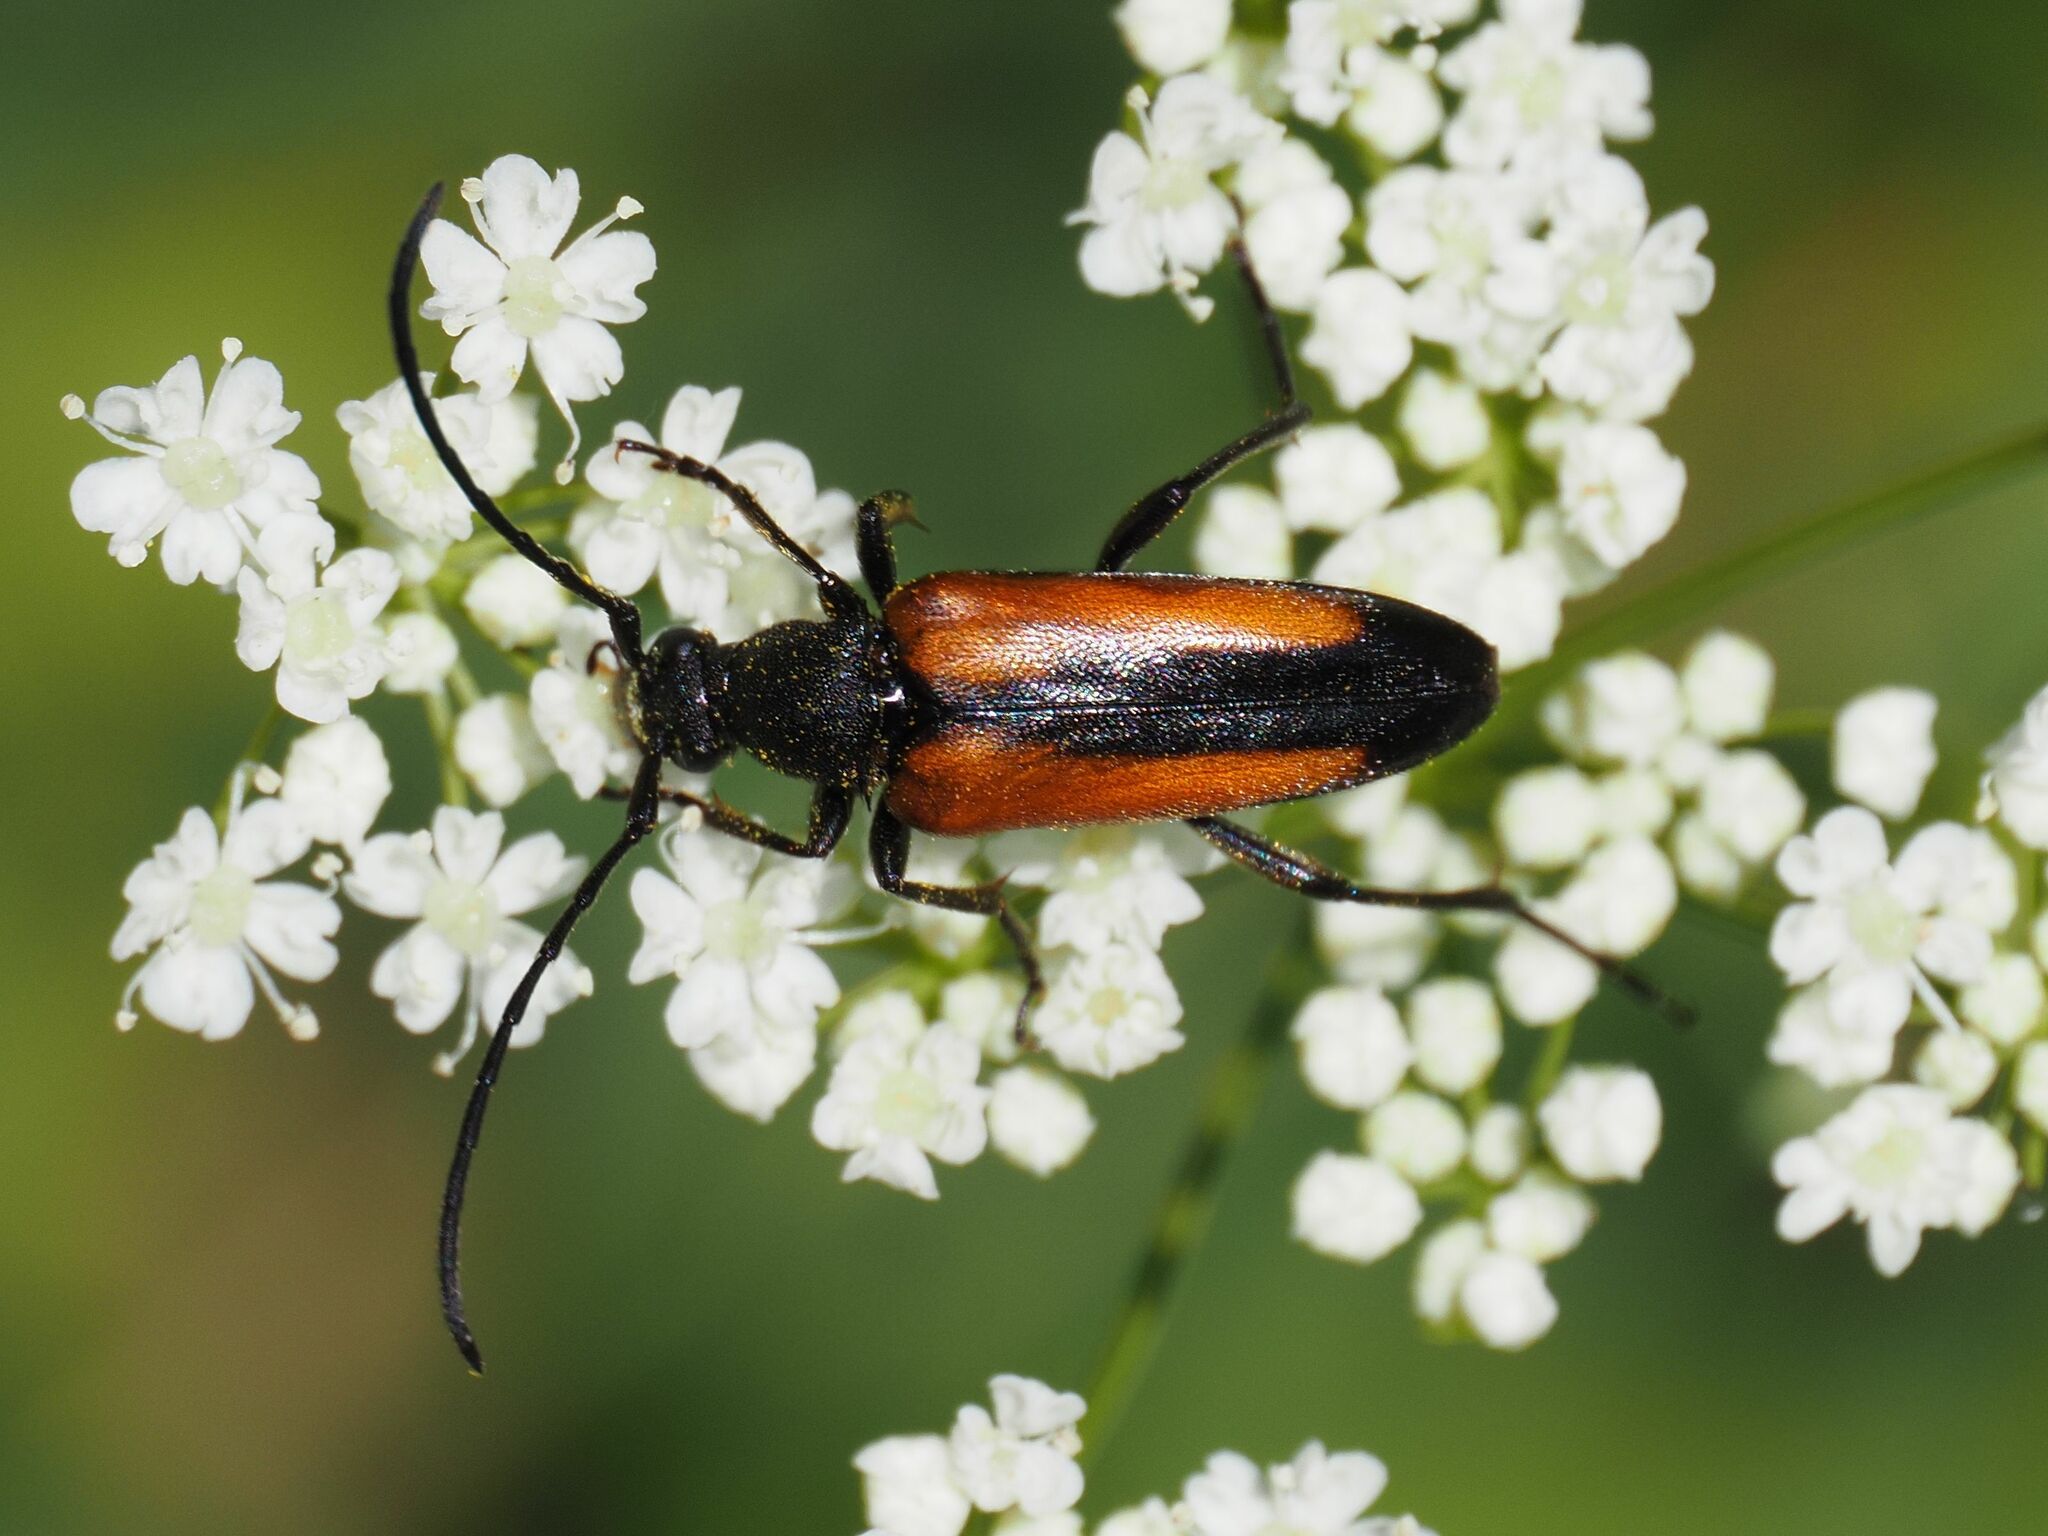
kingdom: Animalia
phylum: Arthropoda
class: Insecta
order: Coleoptera
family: Cerambycidae
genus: Stenurella
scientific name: Stenurella melanura
